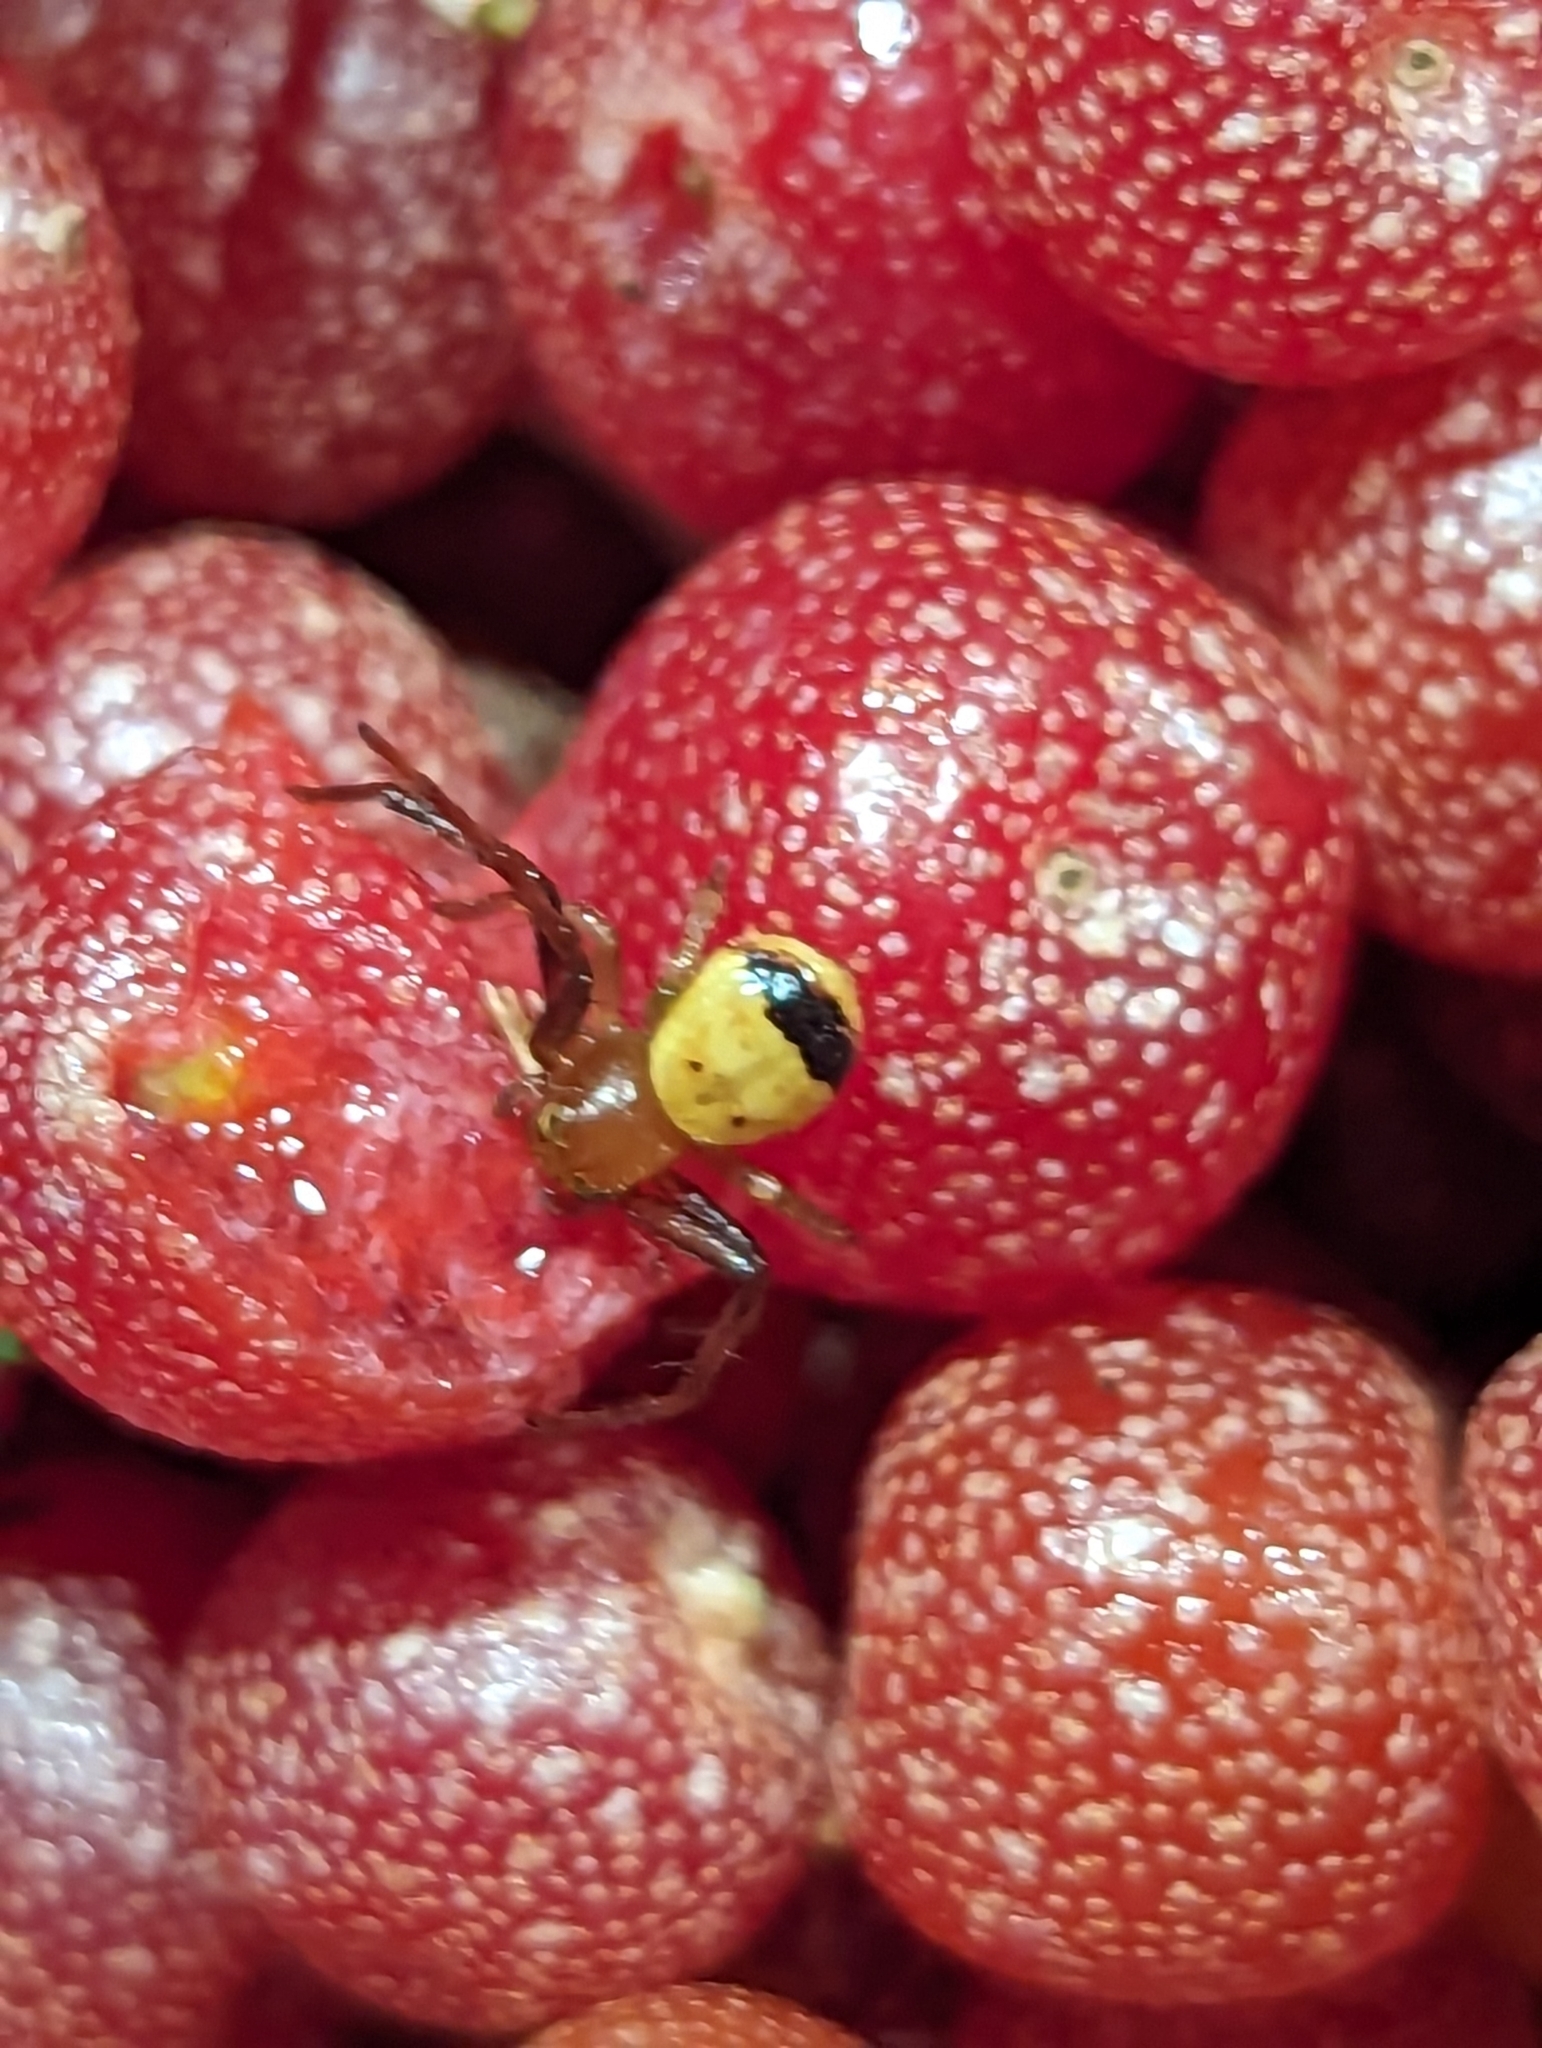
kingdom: Animalia
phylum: Arthropoda
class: Arachnida
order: Araneae
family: Thomisidae
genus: Synema
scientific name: Synema parvulum
